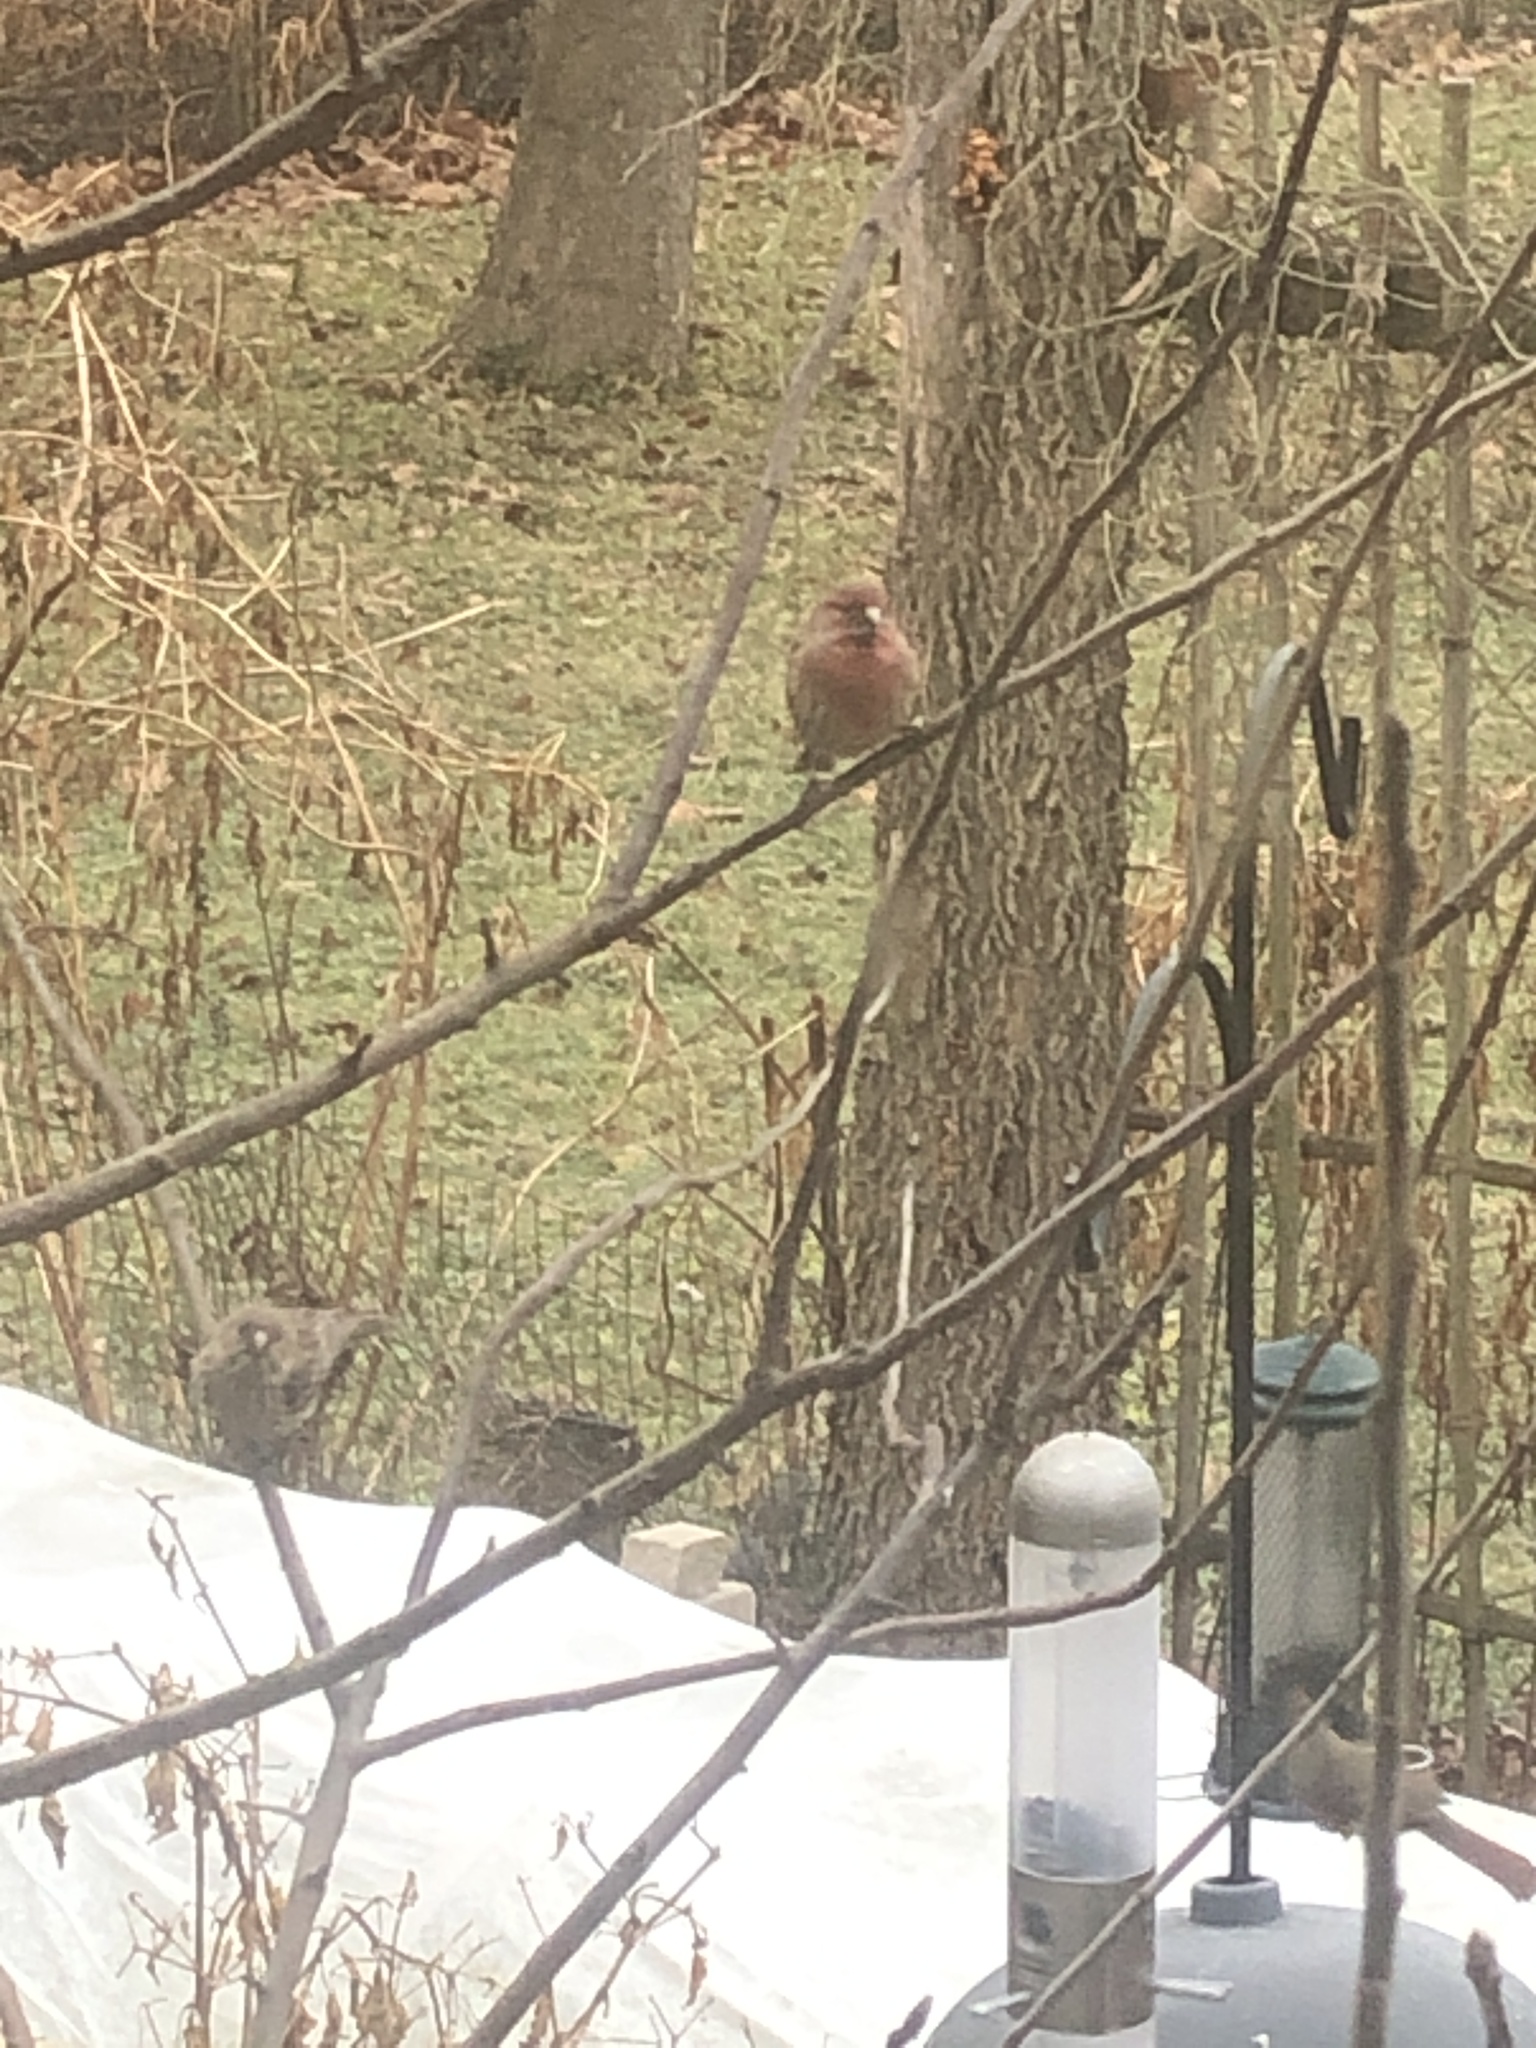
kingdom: Animalia
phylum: Chordata
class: Aves
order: Passeriformes
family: Fringillidae
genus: Haemorhous
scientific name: Haemorhous mexicanus
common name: House finch
